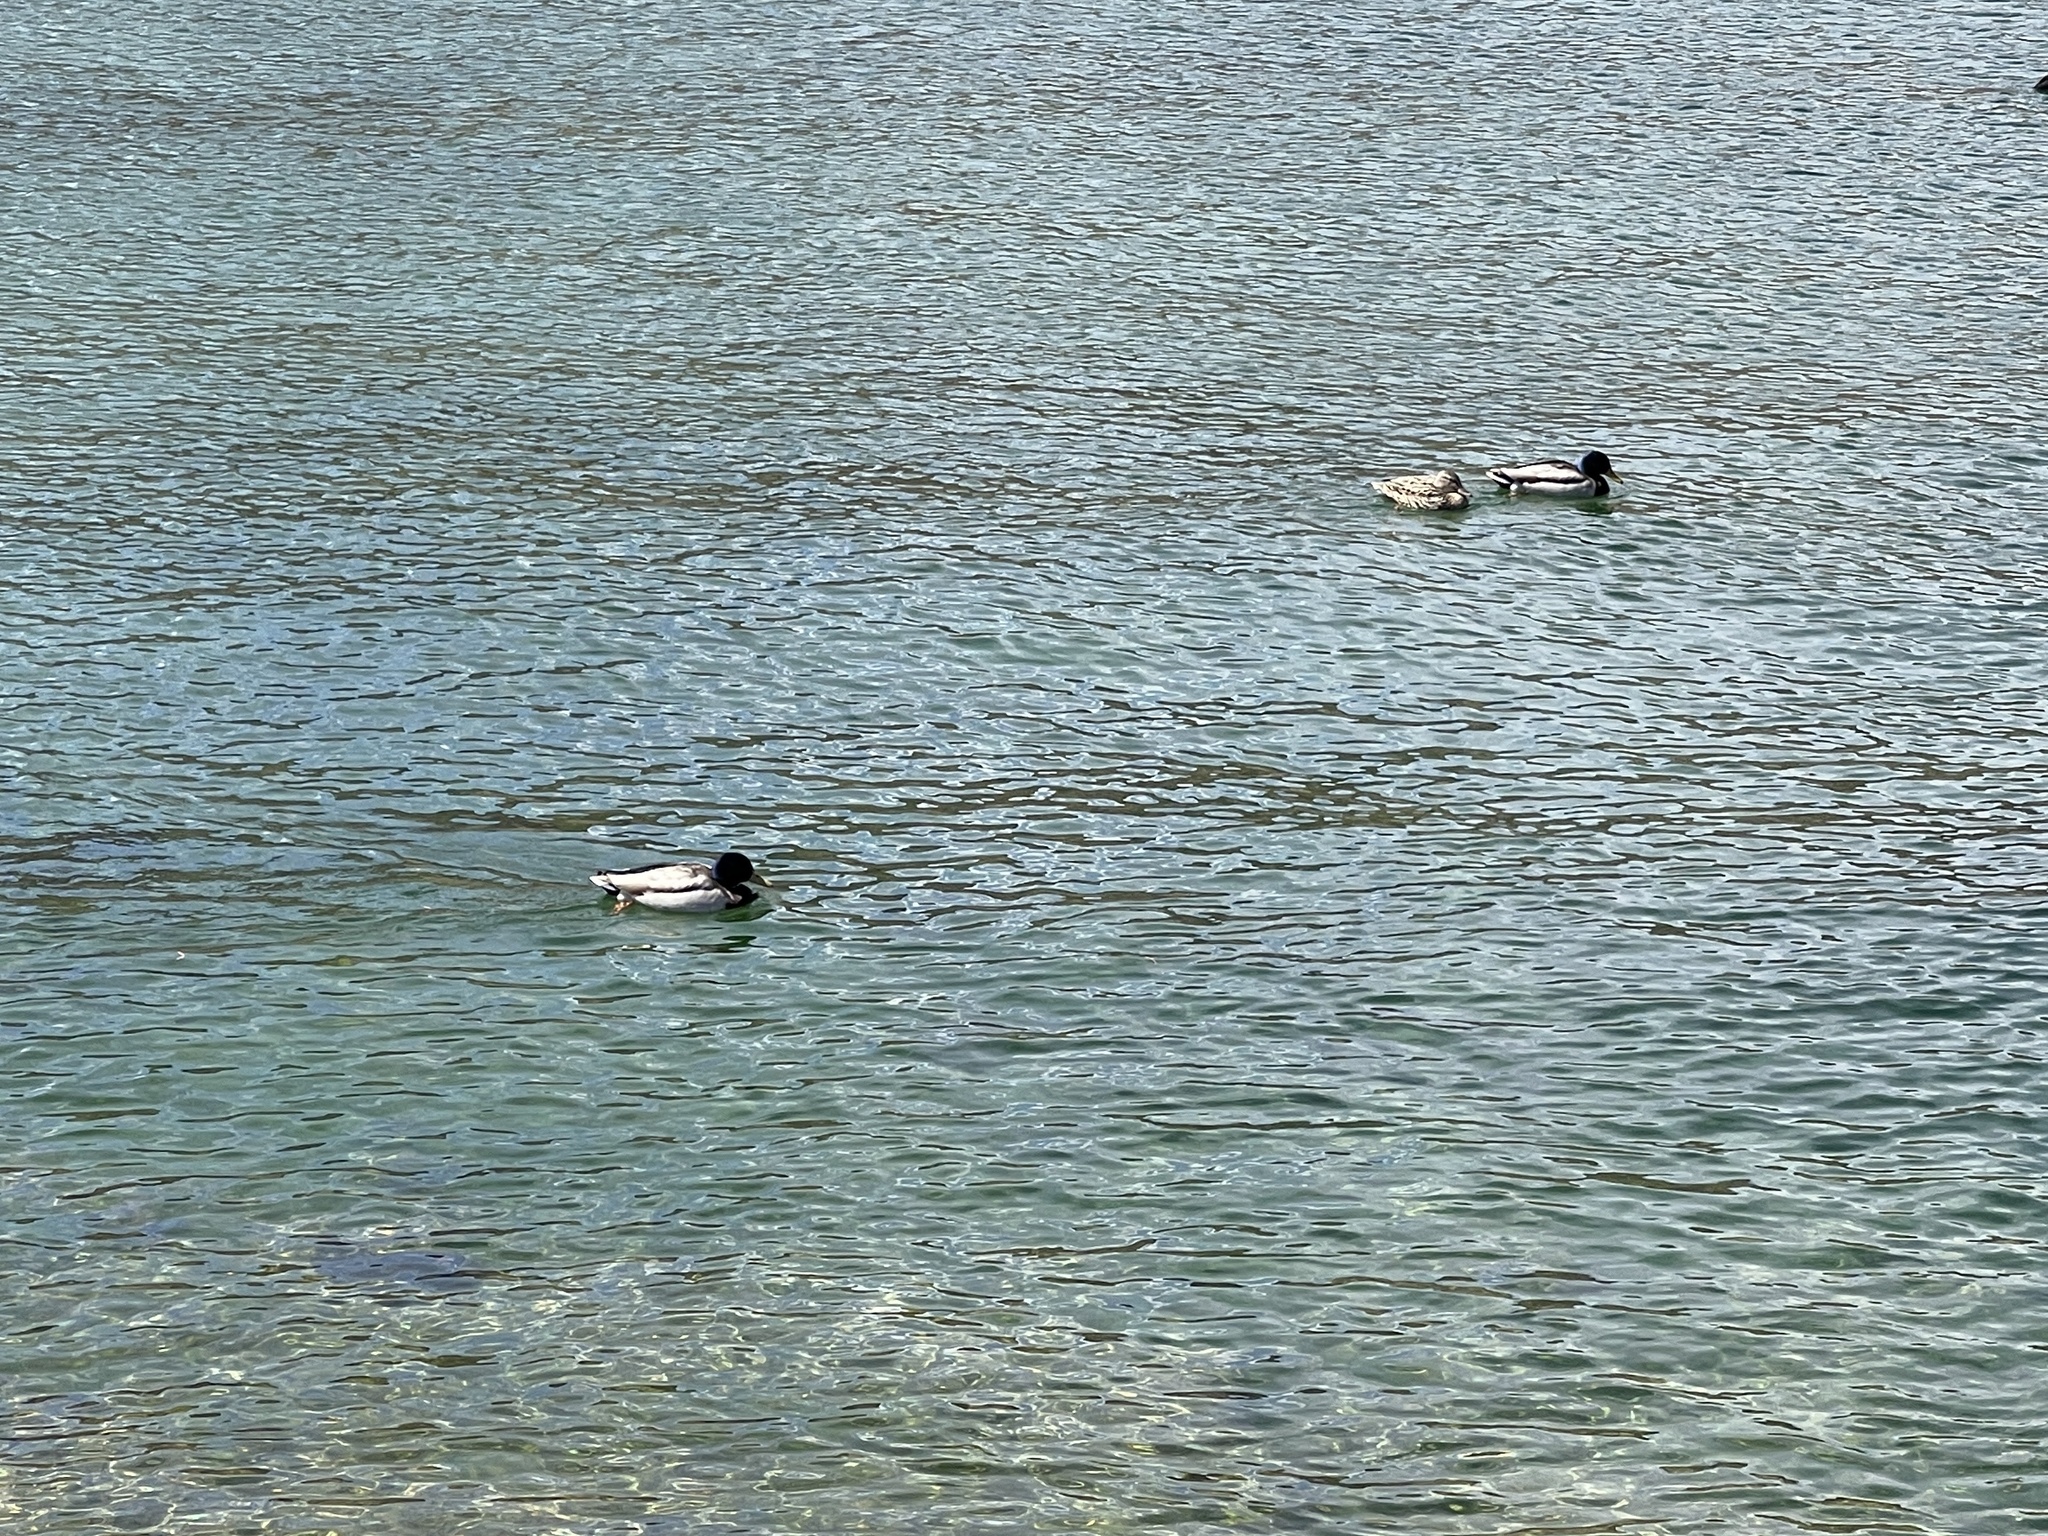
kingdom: Animalia
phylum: Chordata
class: Aves
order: Anseriformes
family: Anatidae
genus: Anas
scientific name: Anas platyrhynchos
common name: Mallard
